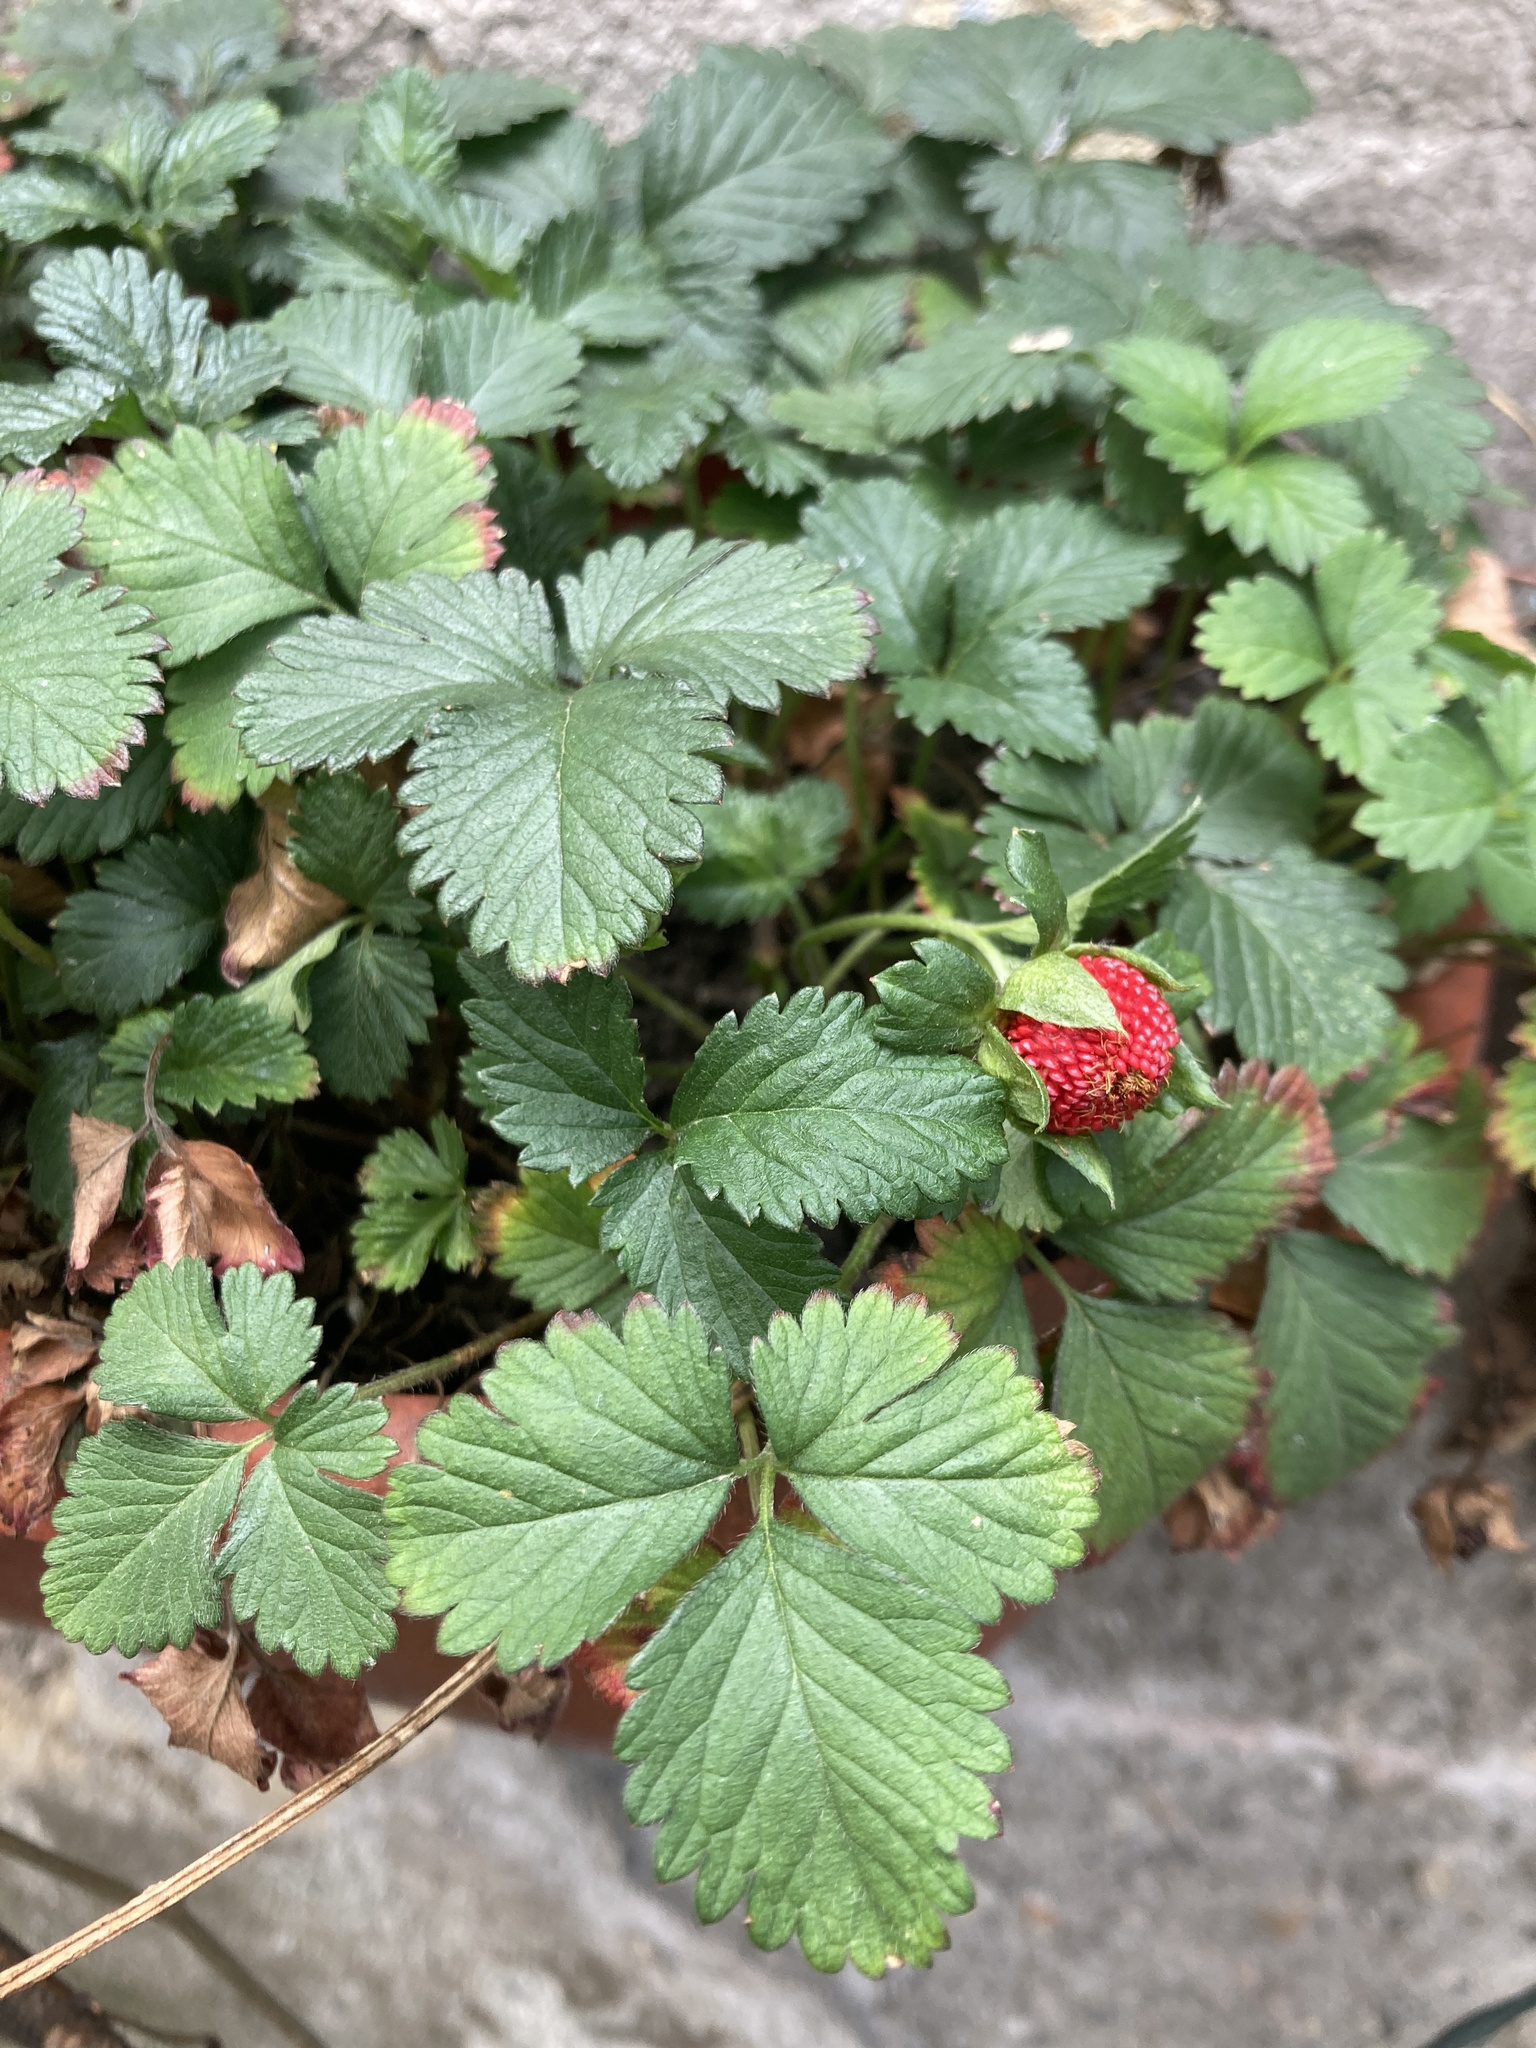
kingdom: Plantae
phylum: Tracheophyta
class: Magnoliopsida
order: Rosales
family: Rosaceae
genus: Potentilla
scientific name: Potentilla indica
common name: Yellow-flowered strawberry
